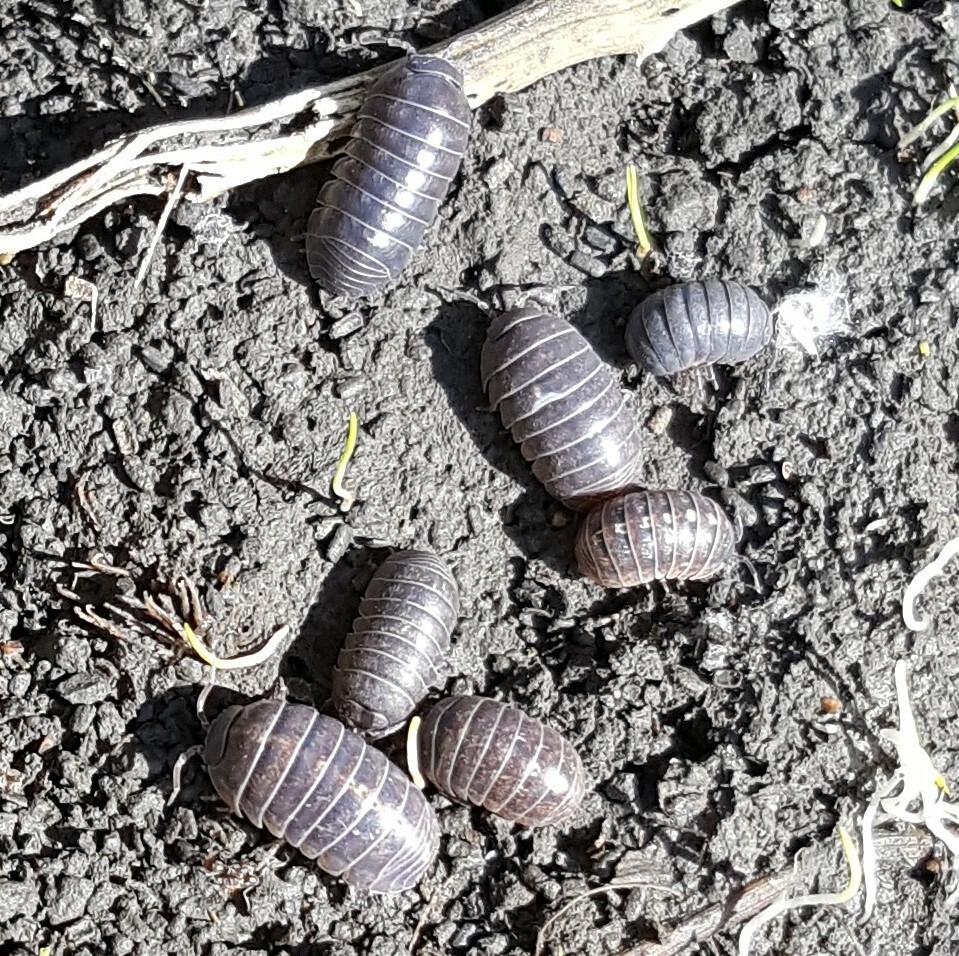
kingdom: Animalia
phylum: Arthropoda
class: Malacostraca
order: Isopoda
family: Armadillidiidae
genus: Armadillidium
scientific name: Armadillidium vulgare
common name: Common pill woodlouse
